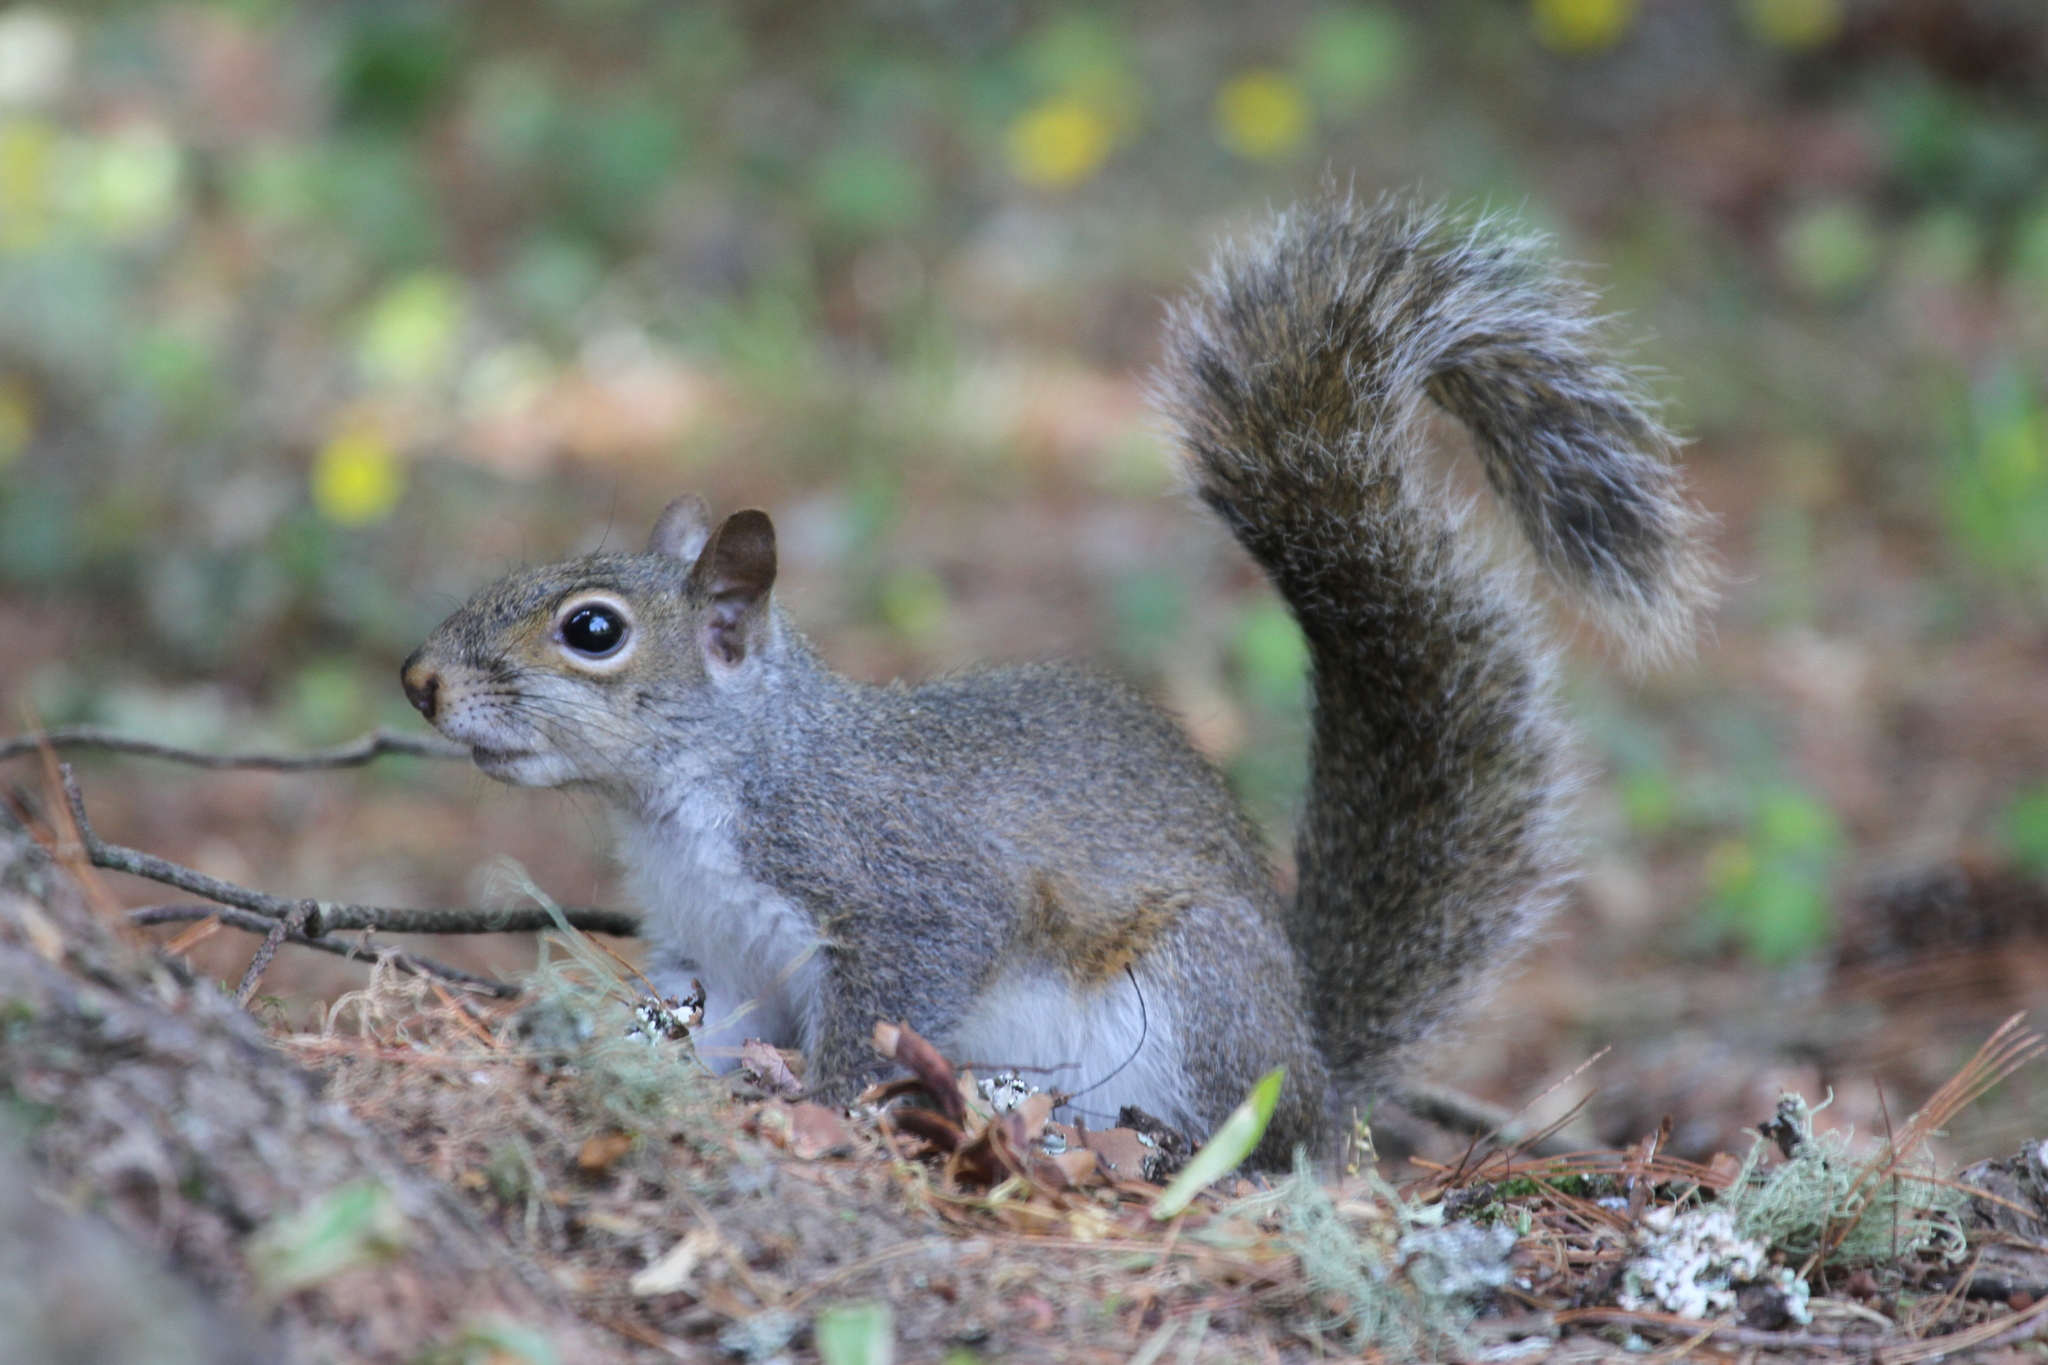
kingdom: Animalia
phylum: Chordata
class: Mammalia
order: Rodentia
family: Sciuridae
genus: Sciurus
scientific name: Sciurus carolinensis
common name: Eastern gray squirrel
